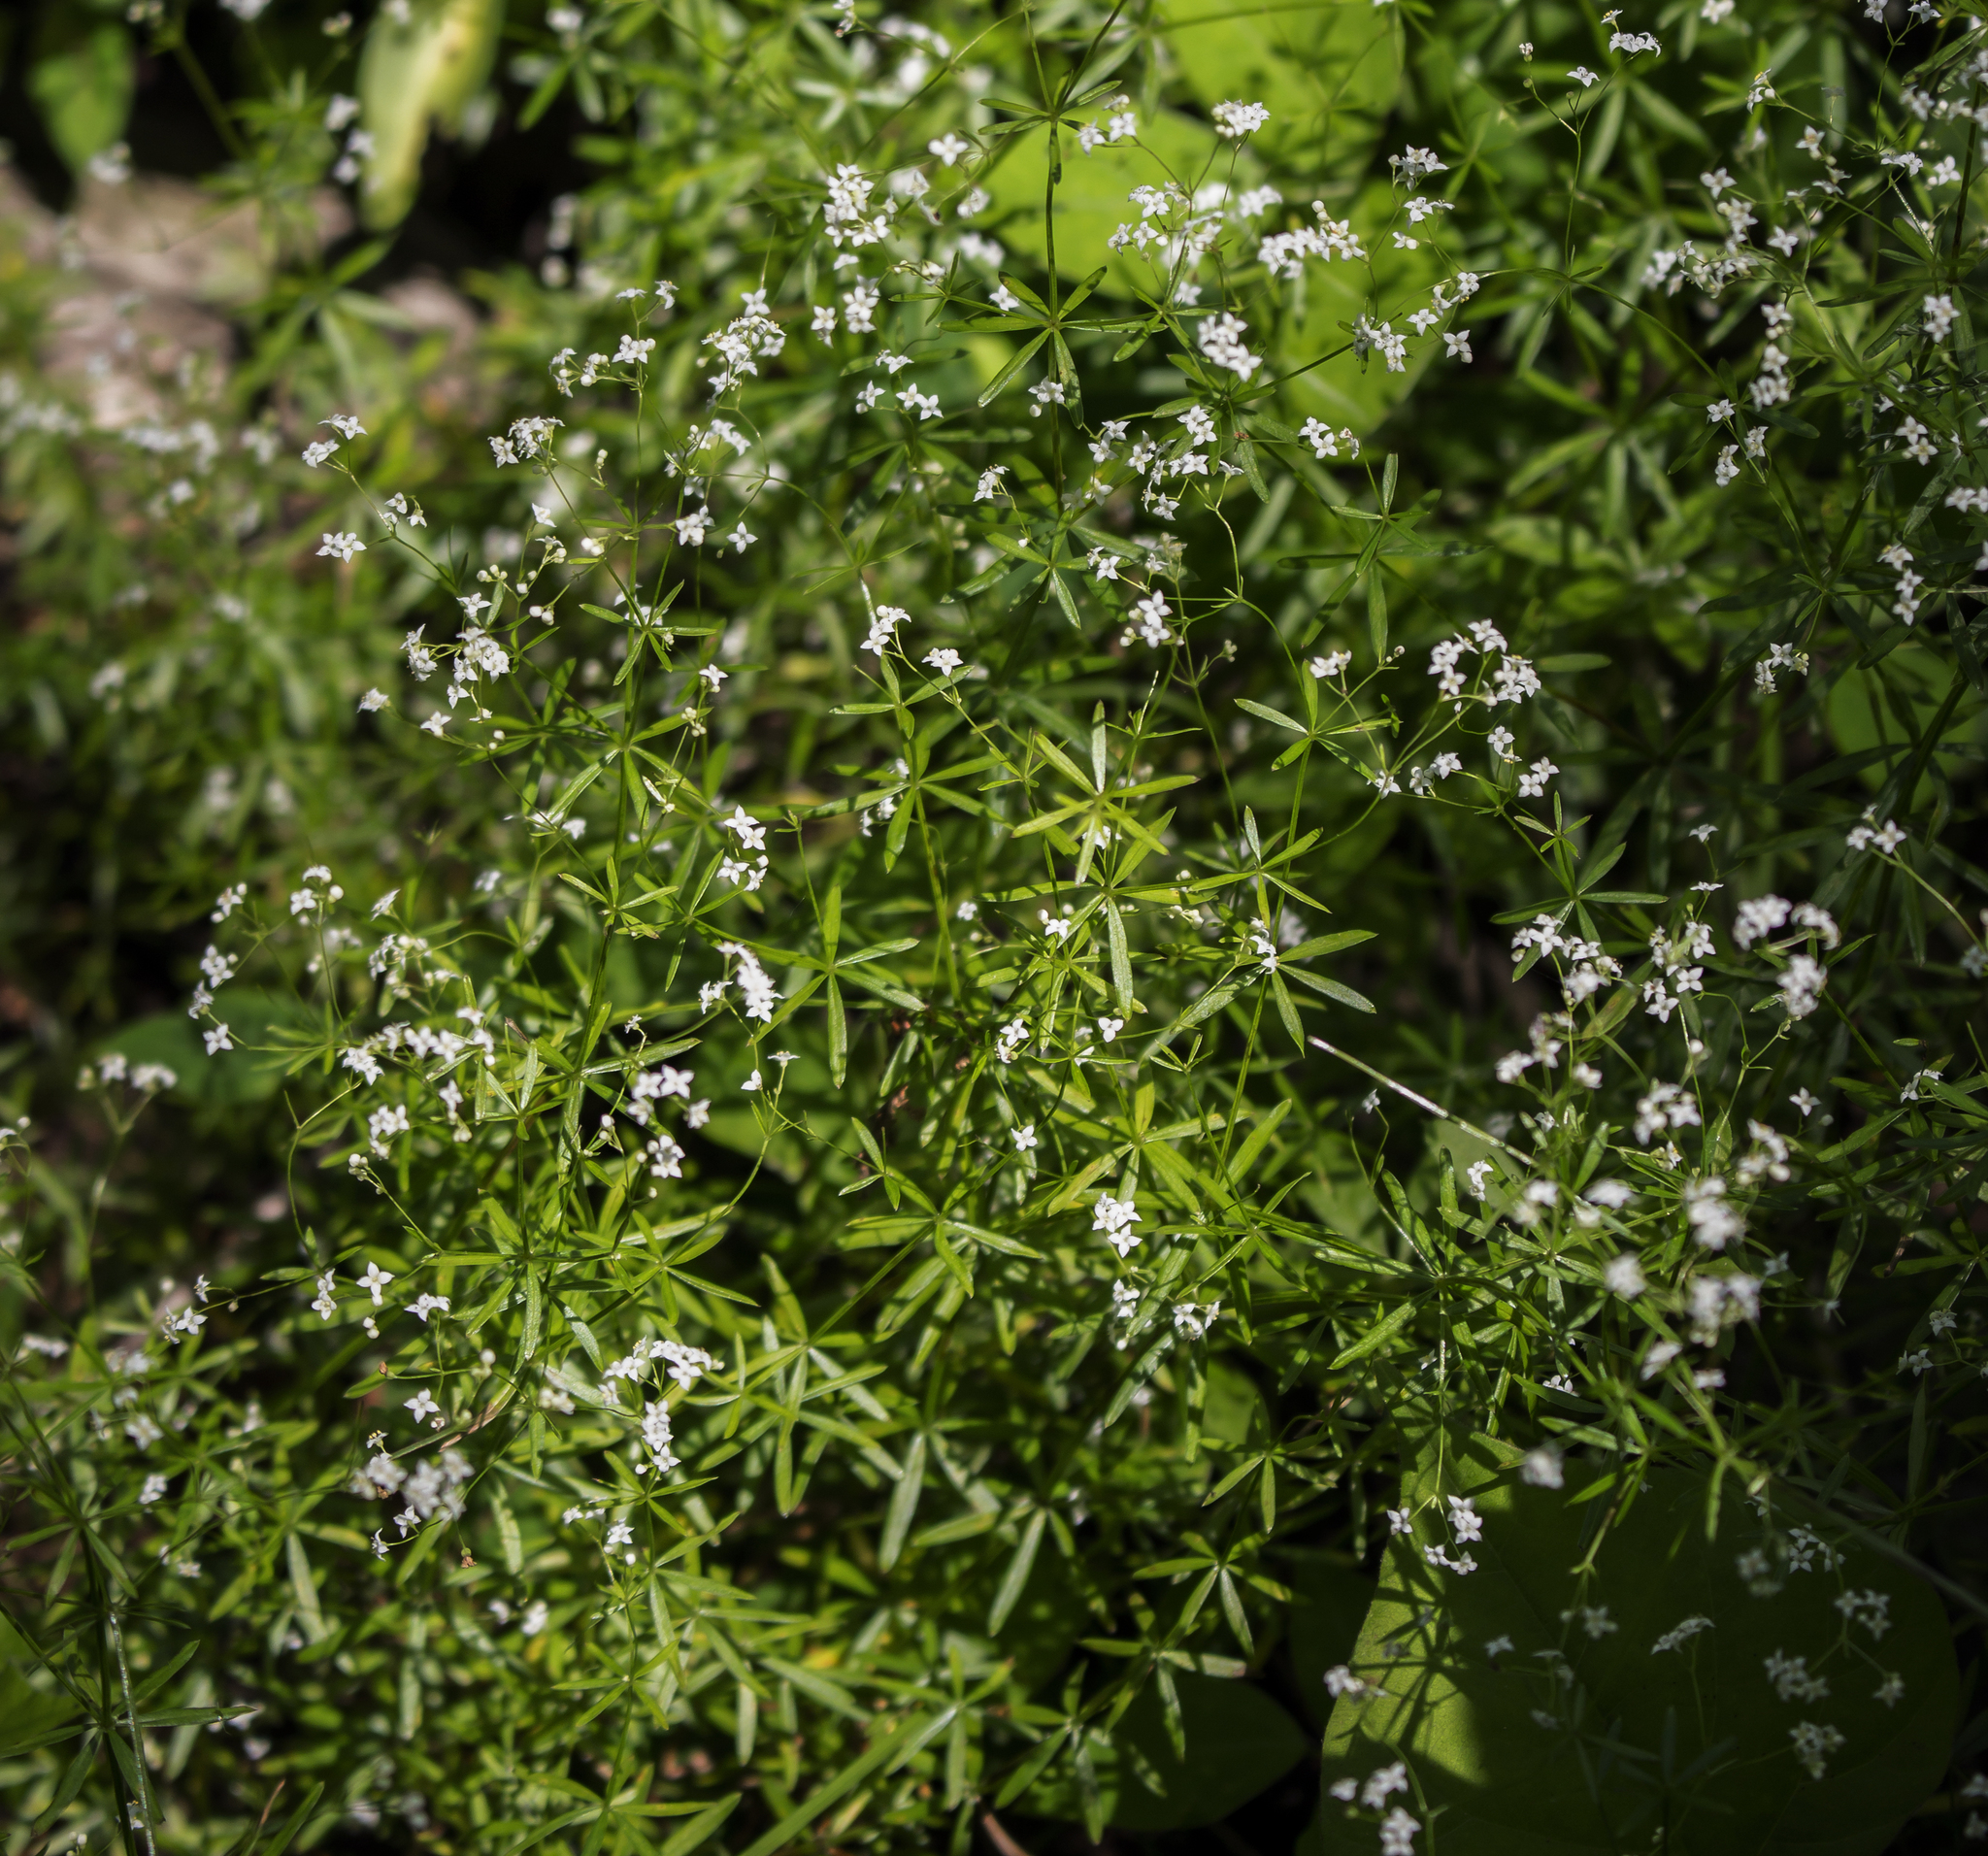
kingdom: Plantae
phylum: Tracheophyta
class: Magnoliopsida
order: Gentianales
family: Rubiaceae
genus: Galium
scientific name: Galium concinnum
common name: Shining bedstraw
